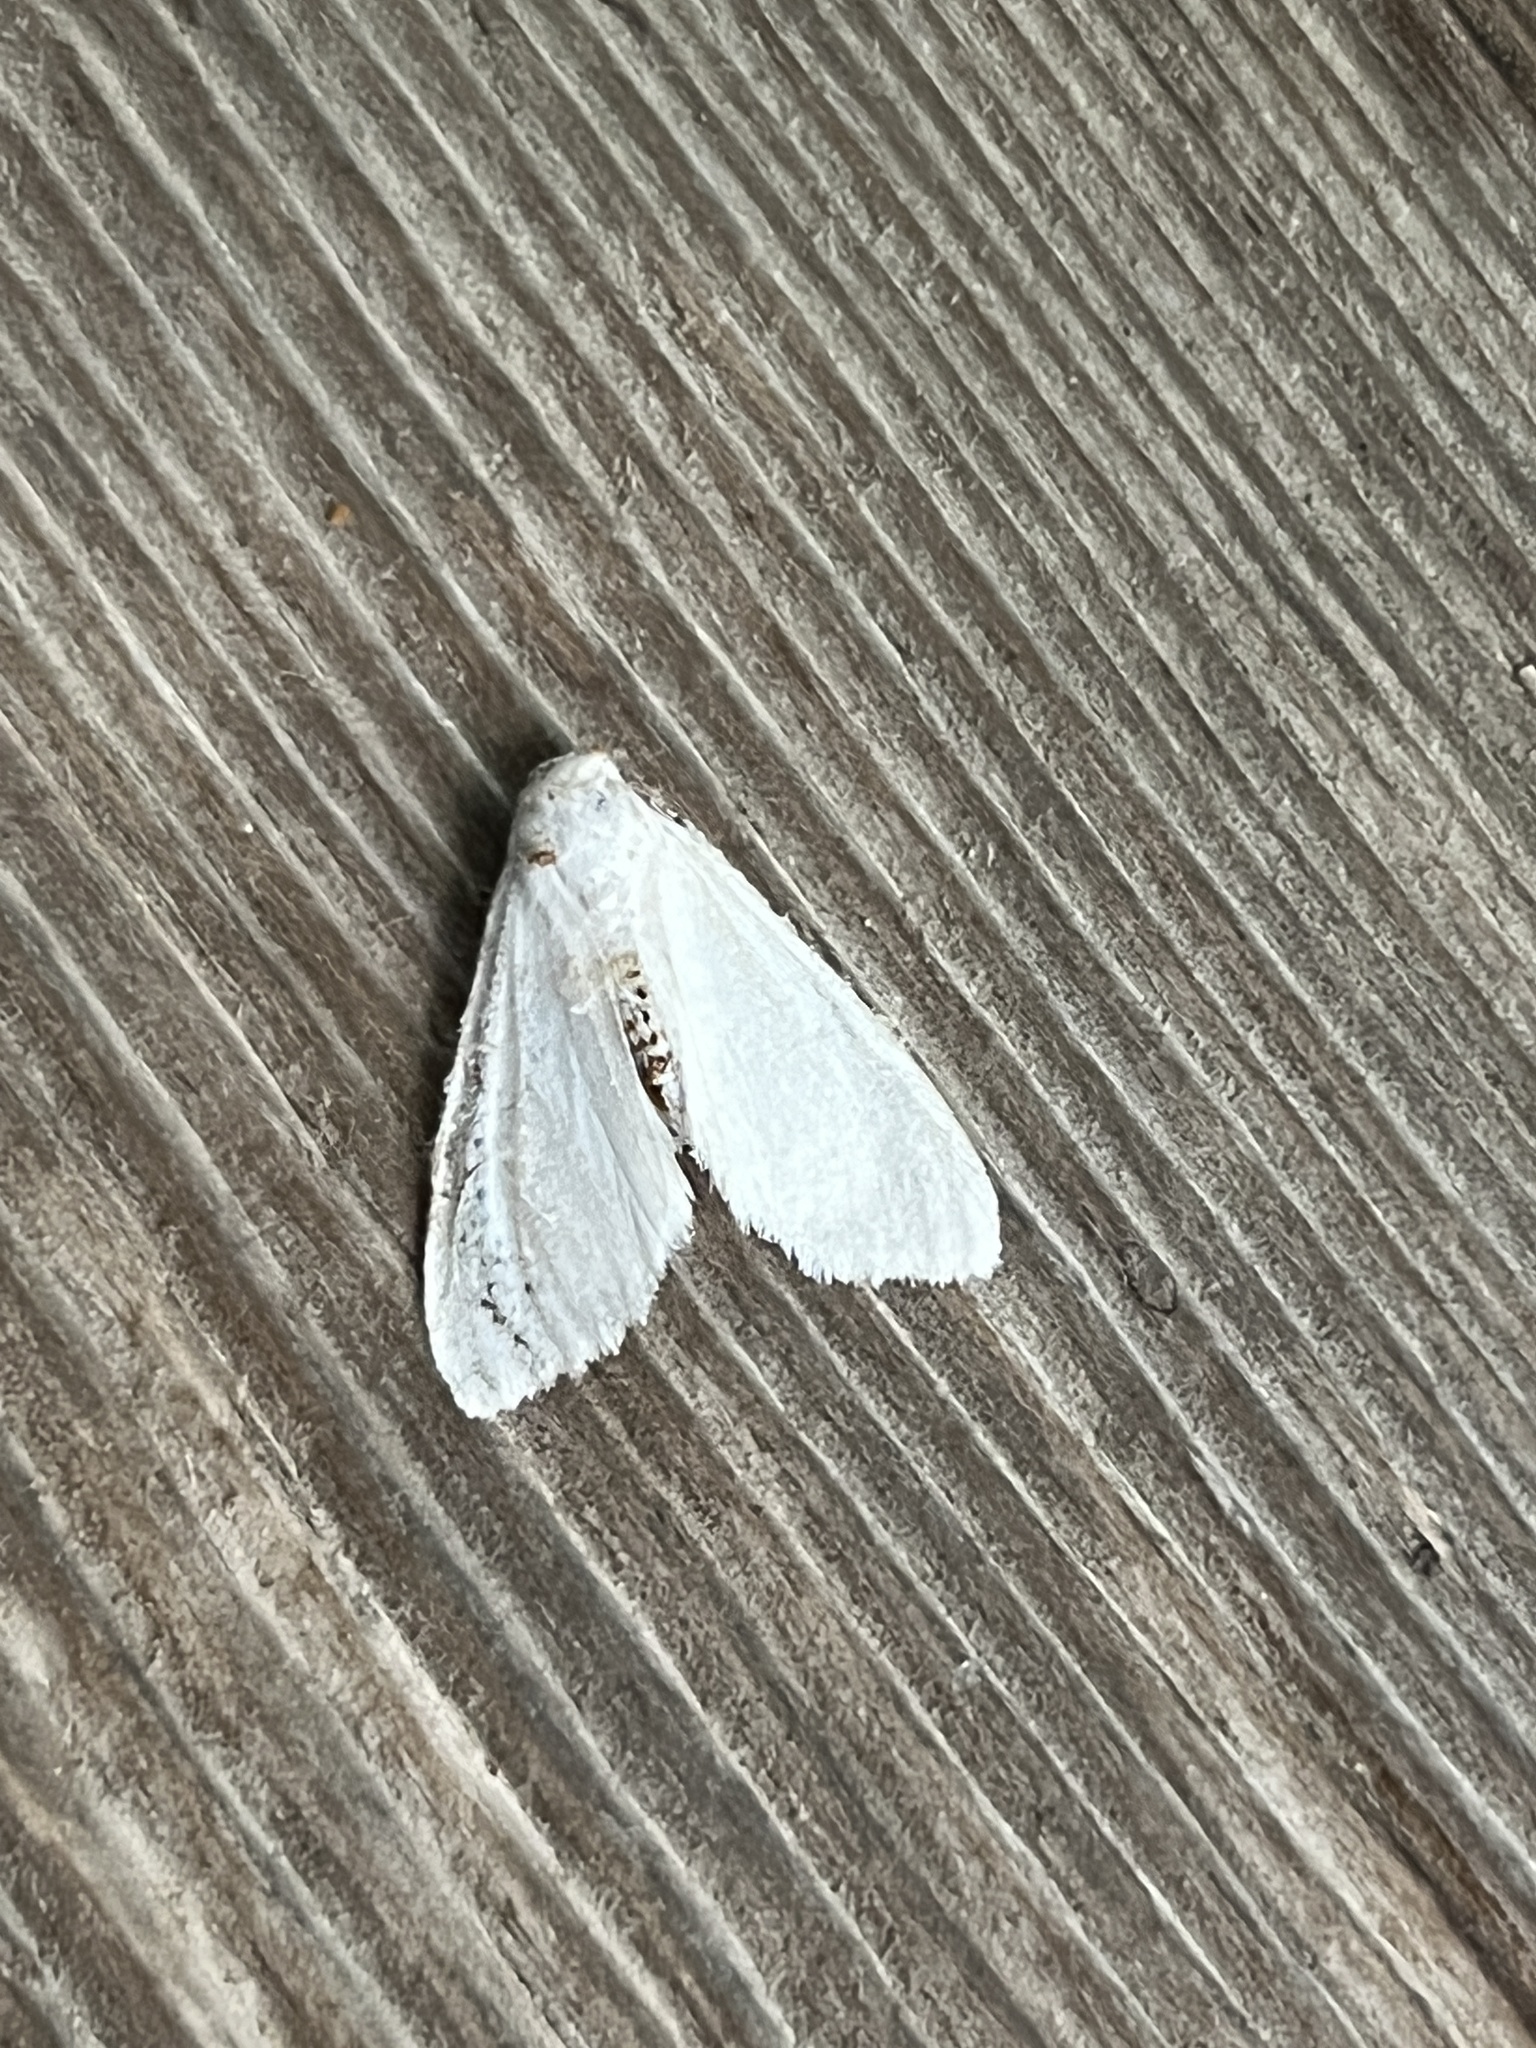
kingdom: Animalia
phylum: Arthropoda
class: Insecta
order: Lepidoptera
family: Erebidae
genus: Hyphantria
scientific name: Hyphantria cunea
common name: American white moth
